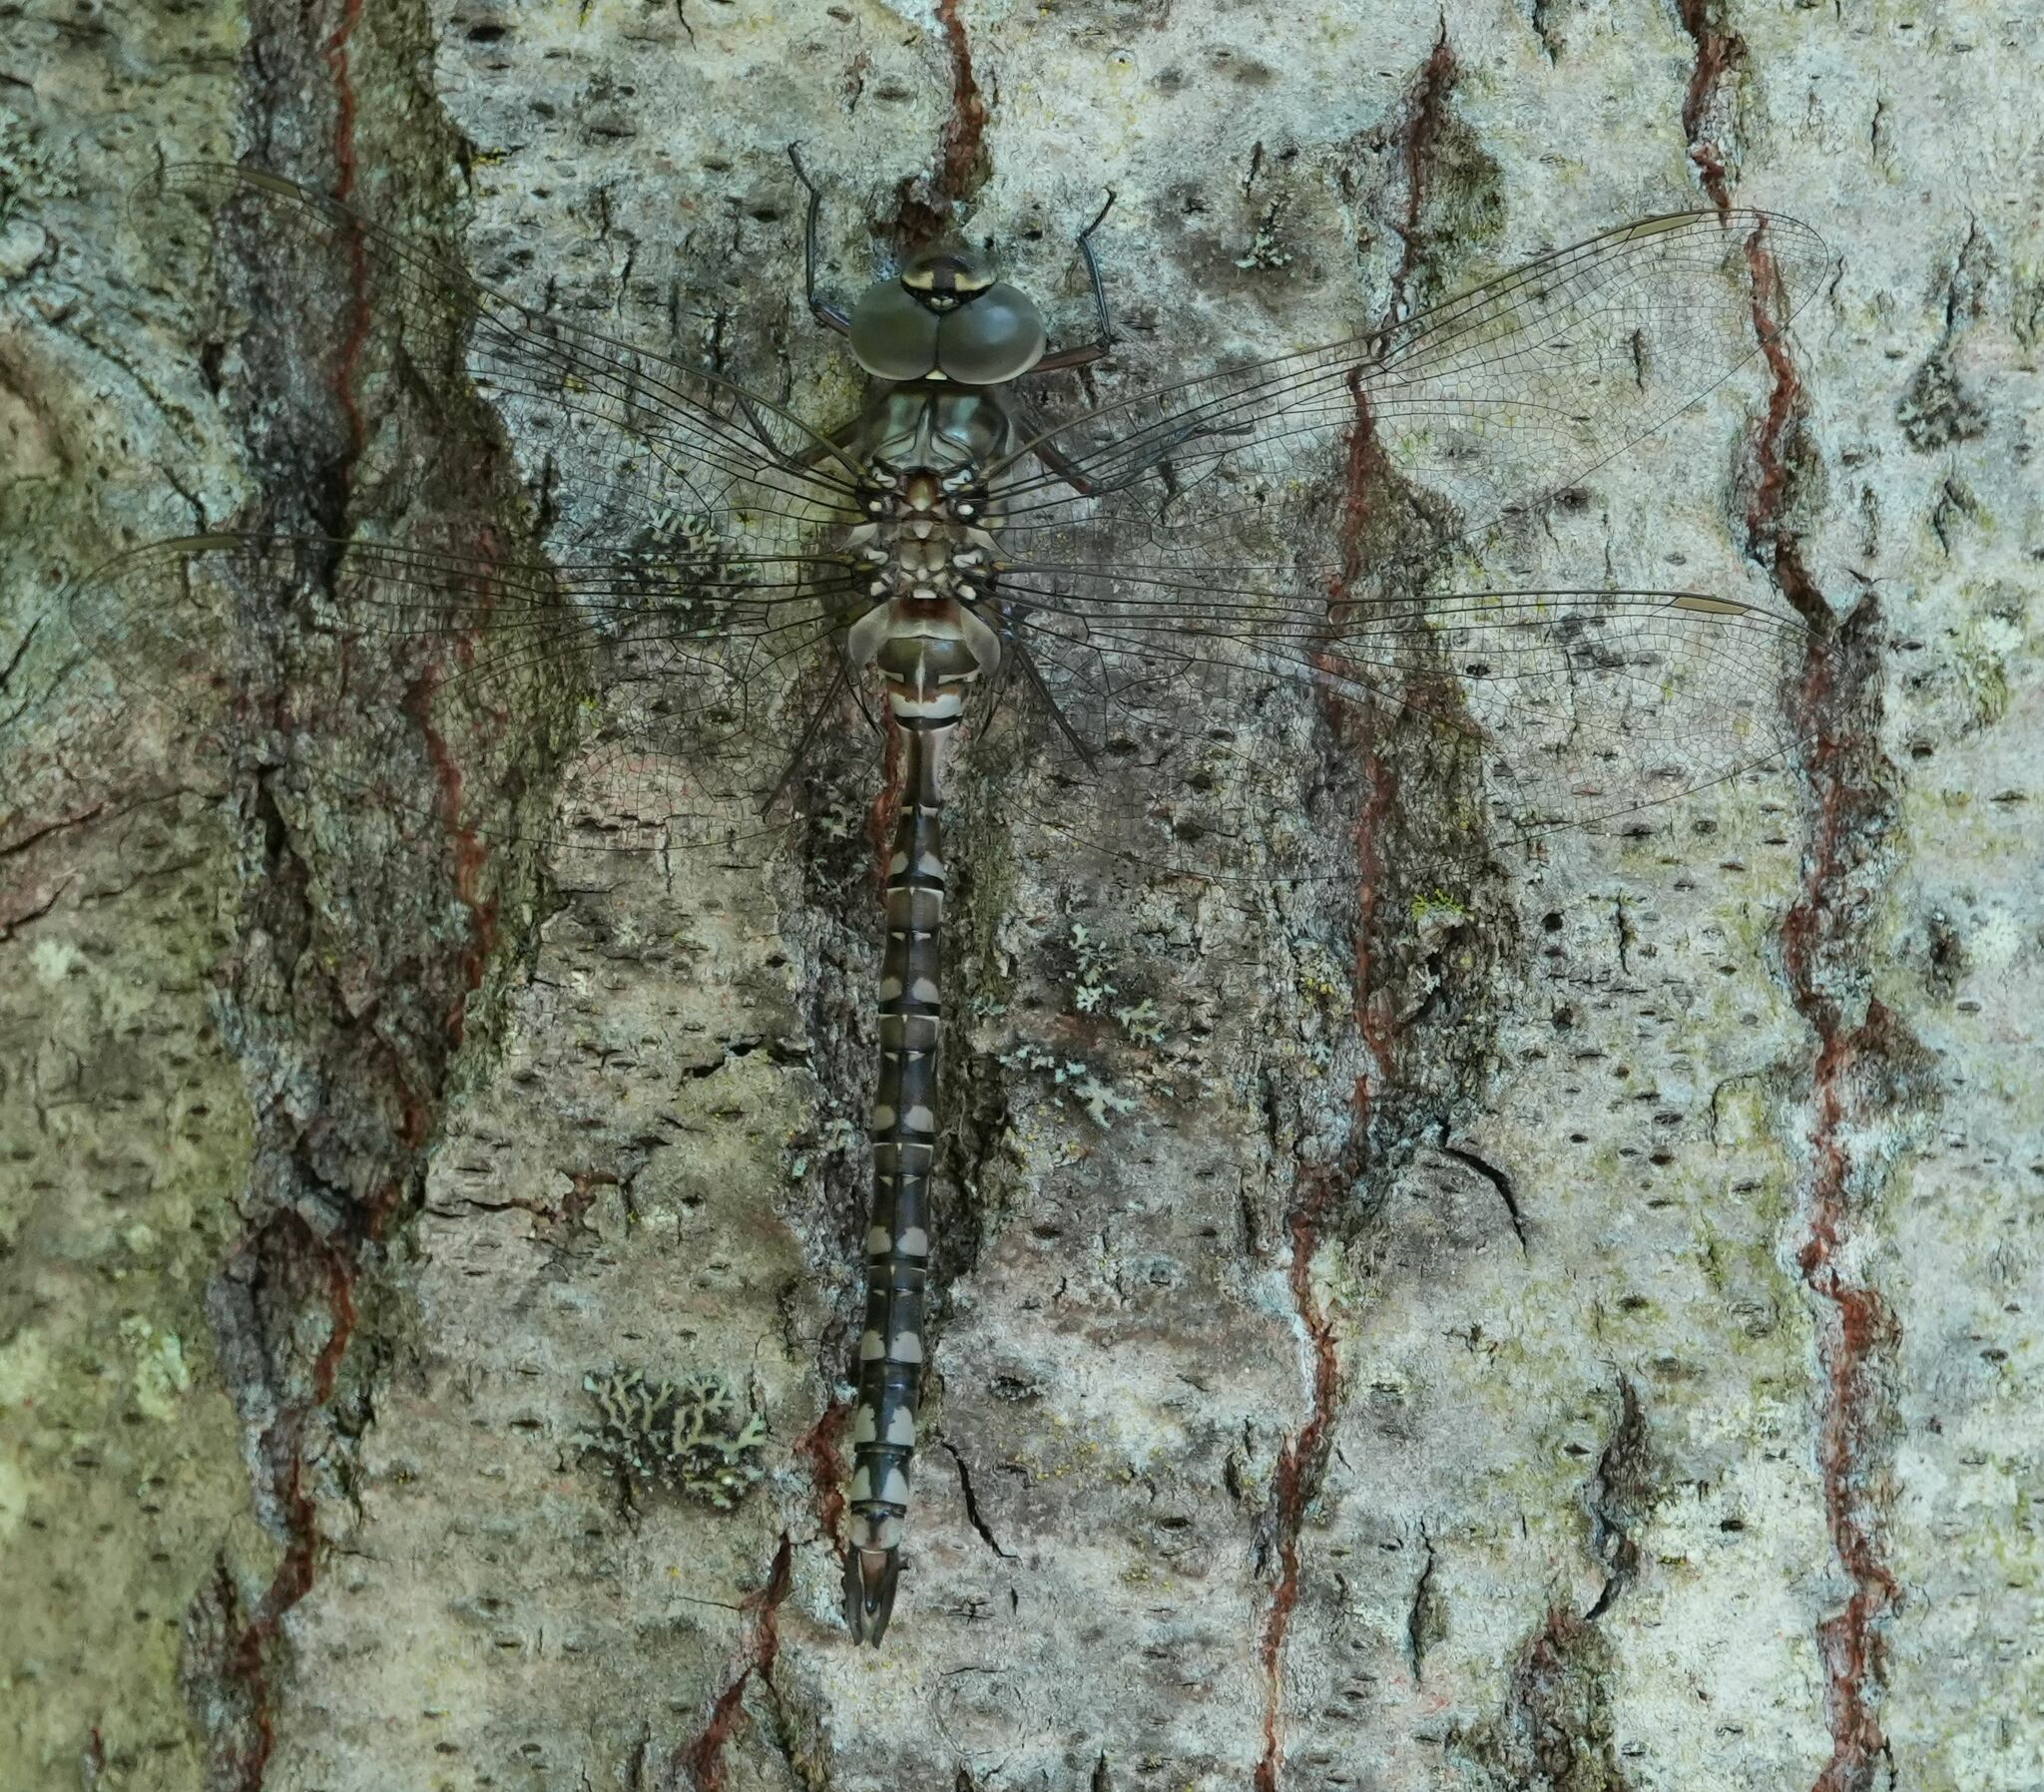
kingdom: Animalia
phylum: Arthropoda
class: Insecta
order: Odonata
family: Aeshnidae
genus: Aeshna
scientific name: Aeshna canadensis
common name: Canada darner
